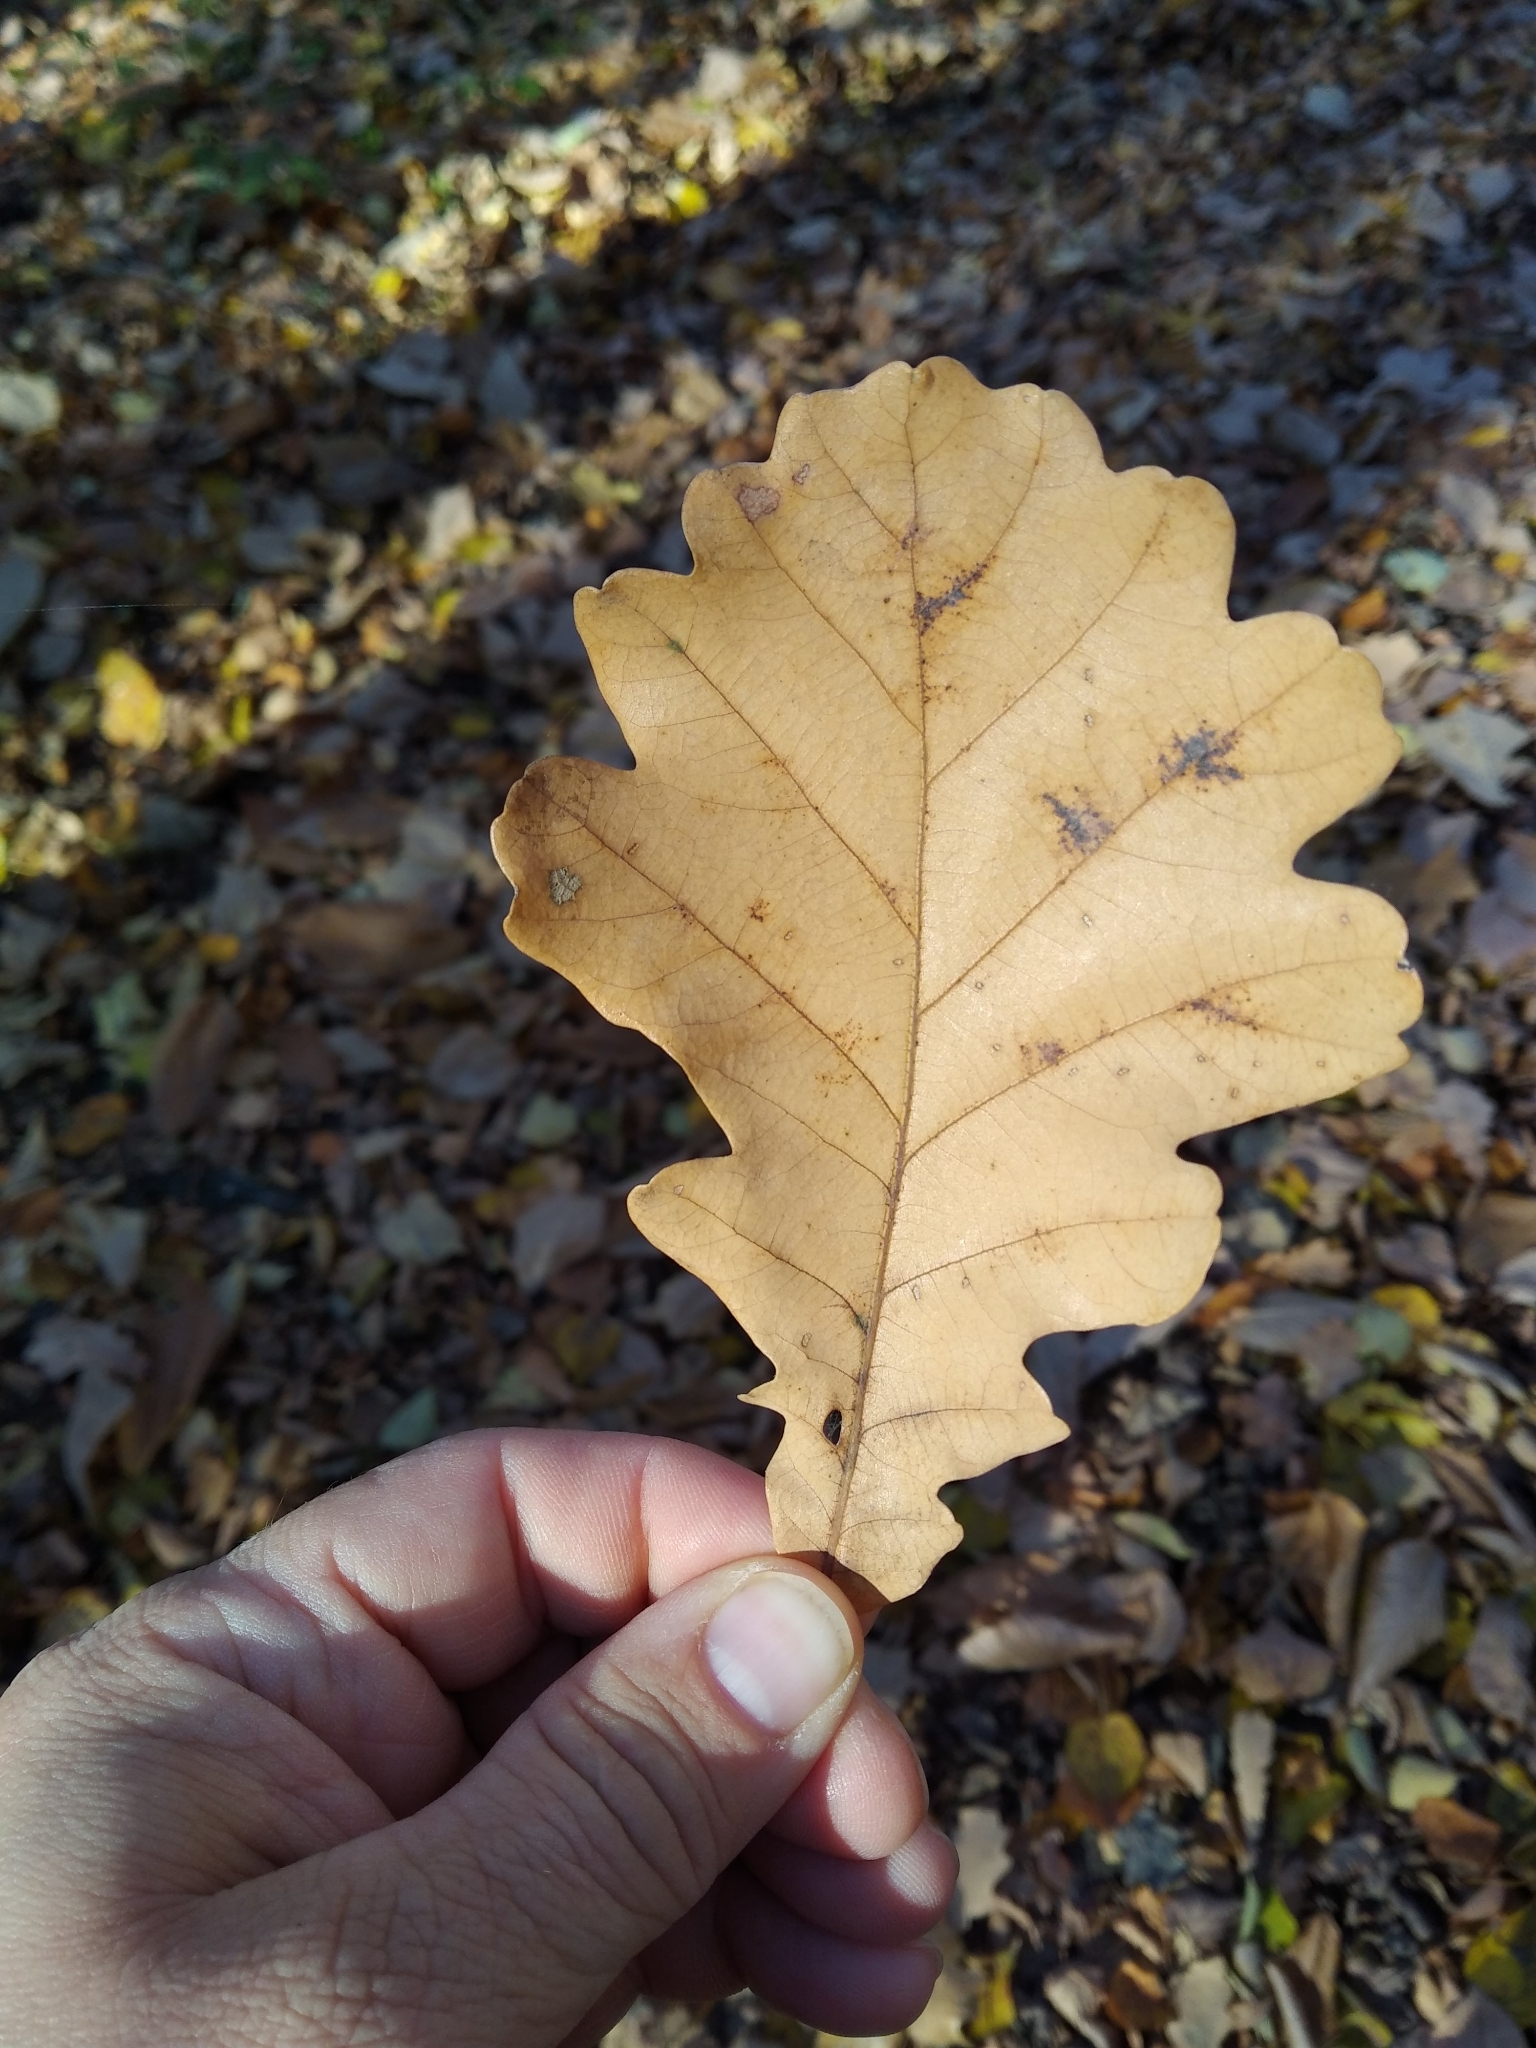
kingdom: Plantae
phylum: Tracheophyta
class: Magnoliopsida
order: Fagales
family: Fagaceae
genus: Quercus
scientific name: Quercus robur
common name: Pedunculate oak
